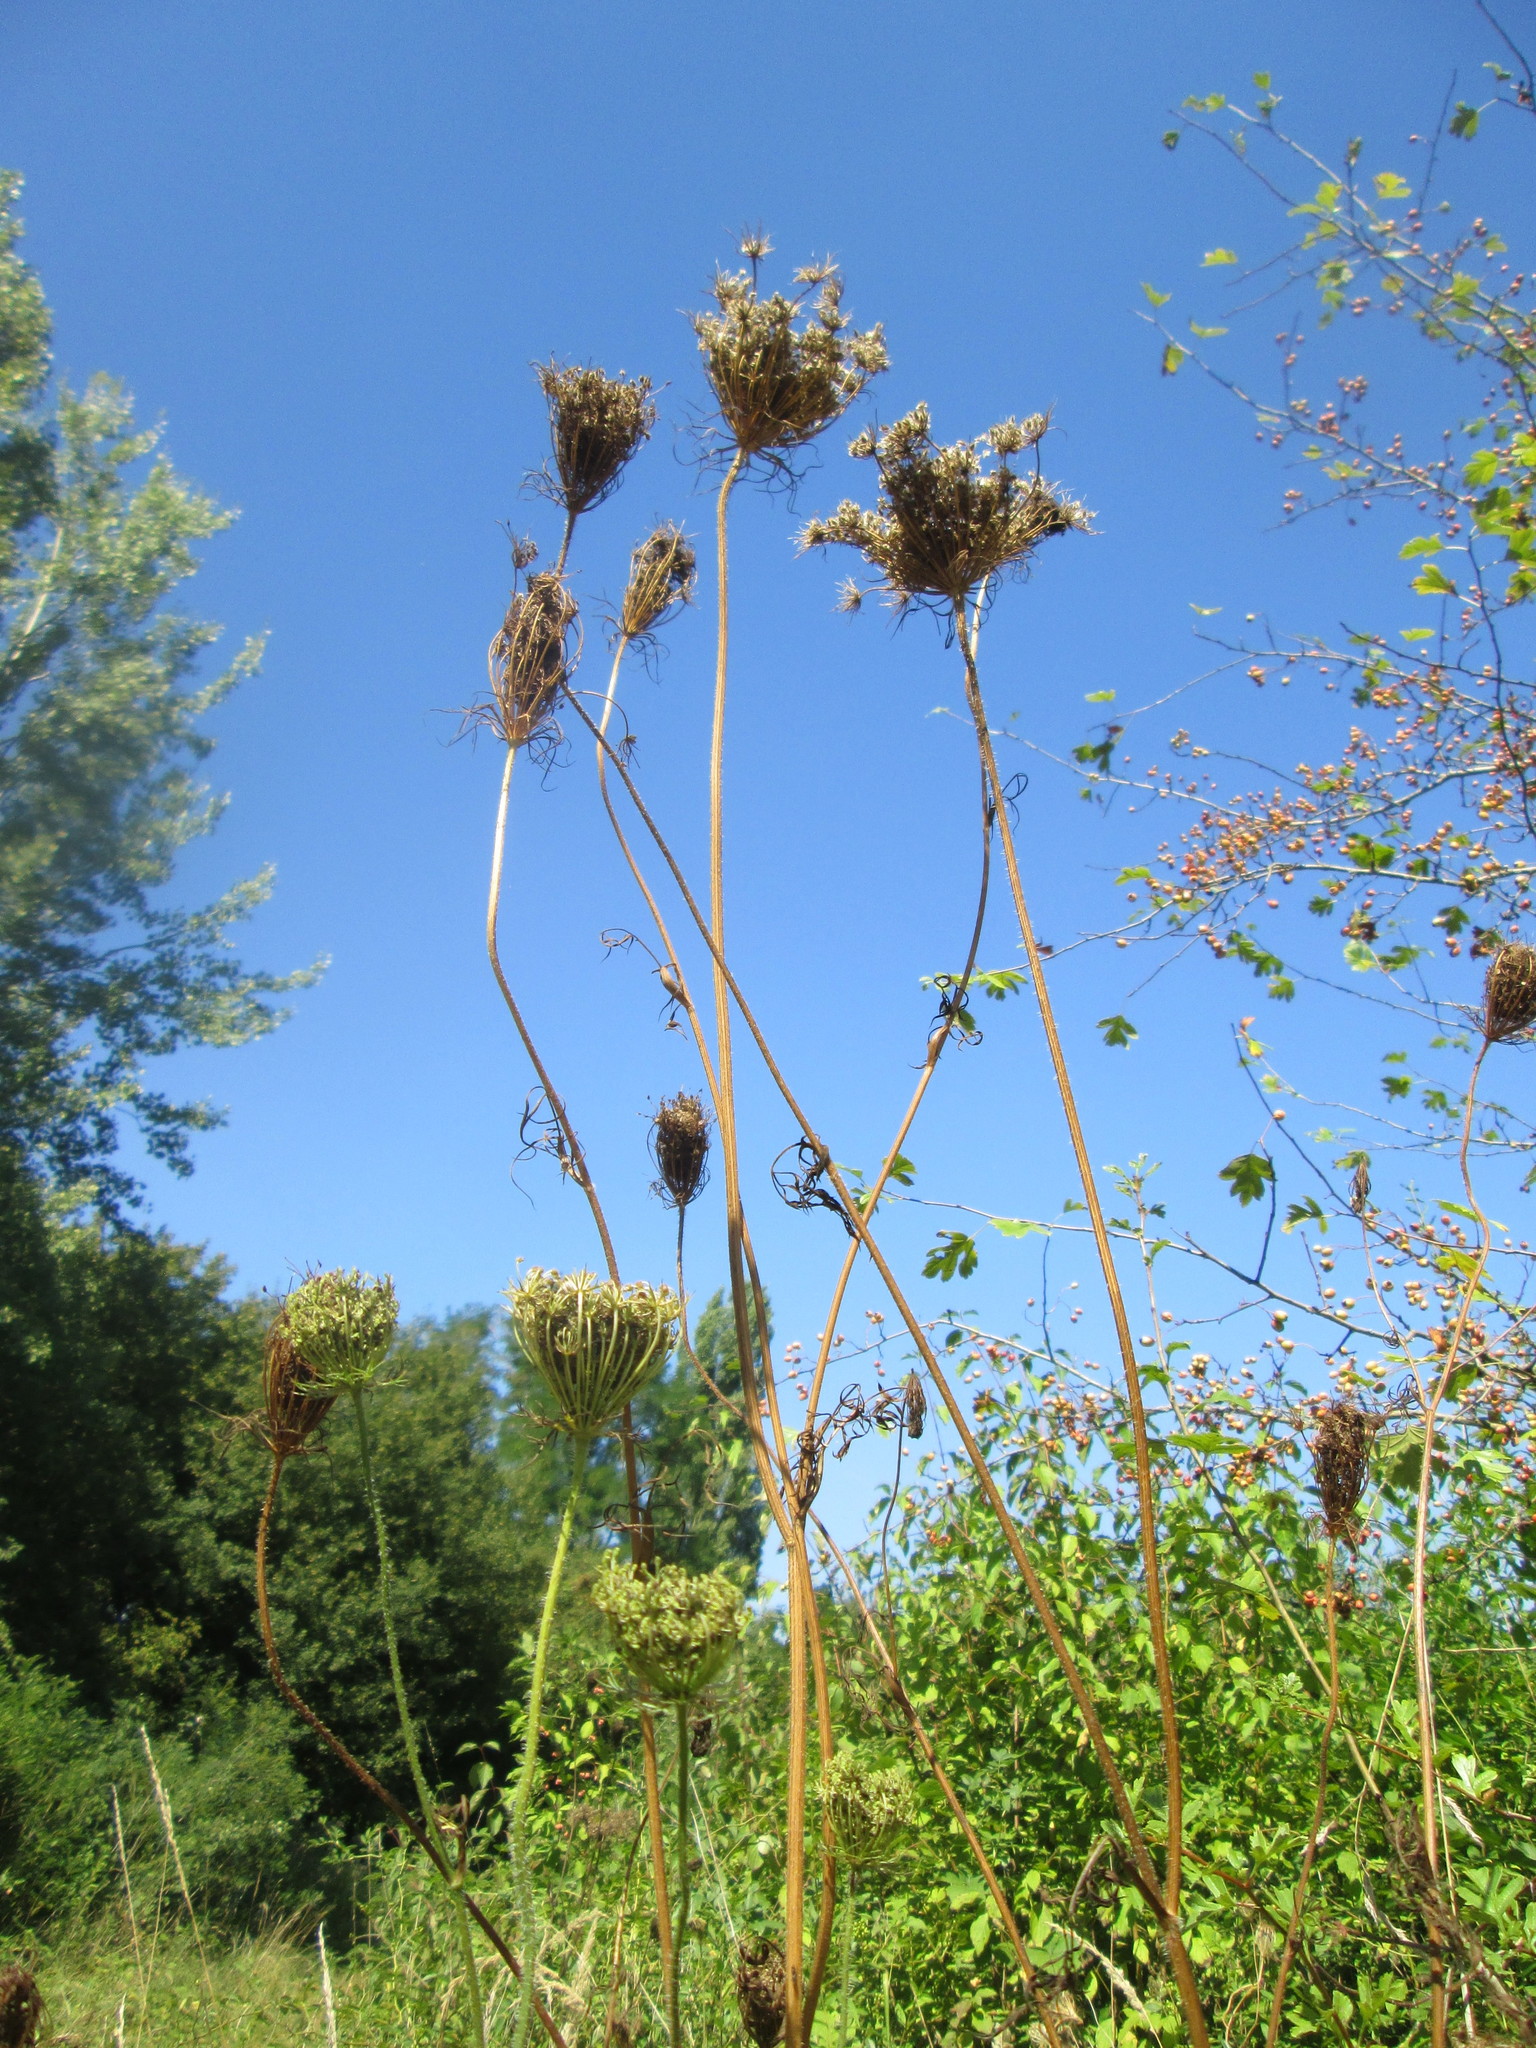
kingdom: Plantae
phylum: Tracheophyta
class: Magnoliopsida
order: Apiales
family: Apiaceae
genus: Daucus
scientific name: Daucus carota
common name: Wild carrot
